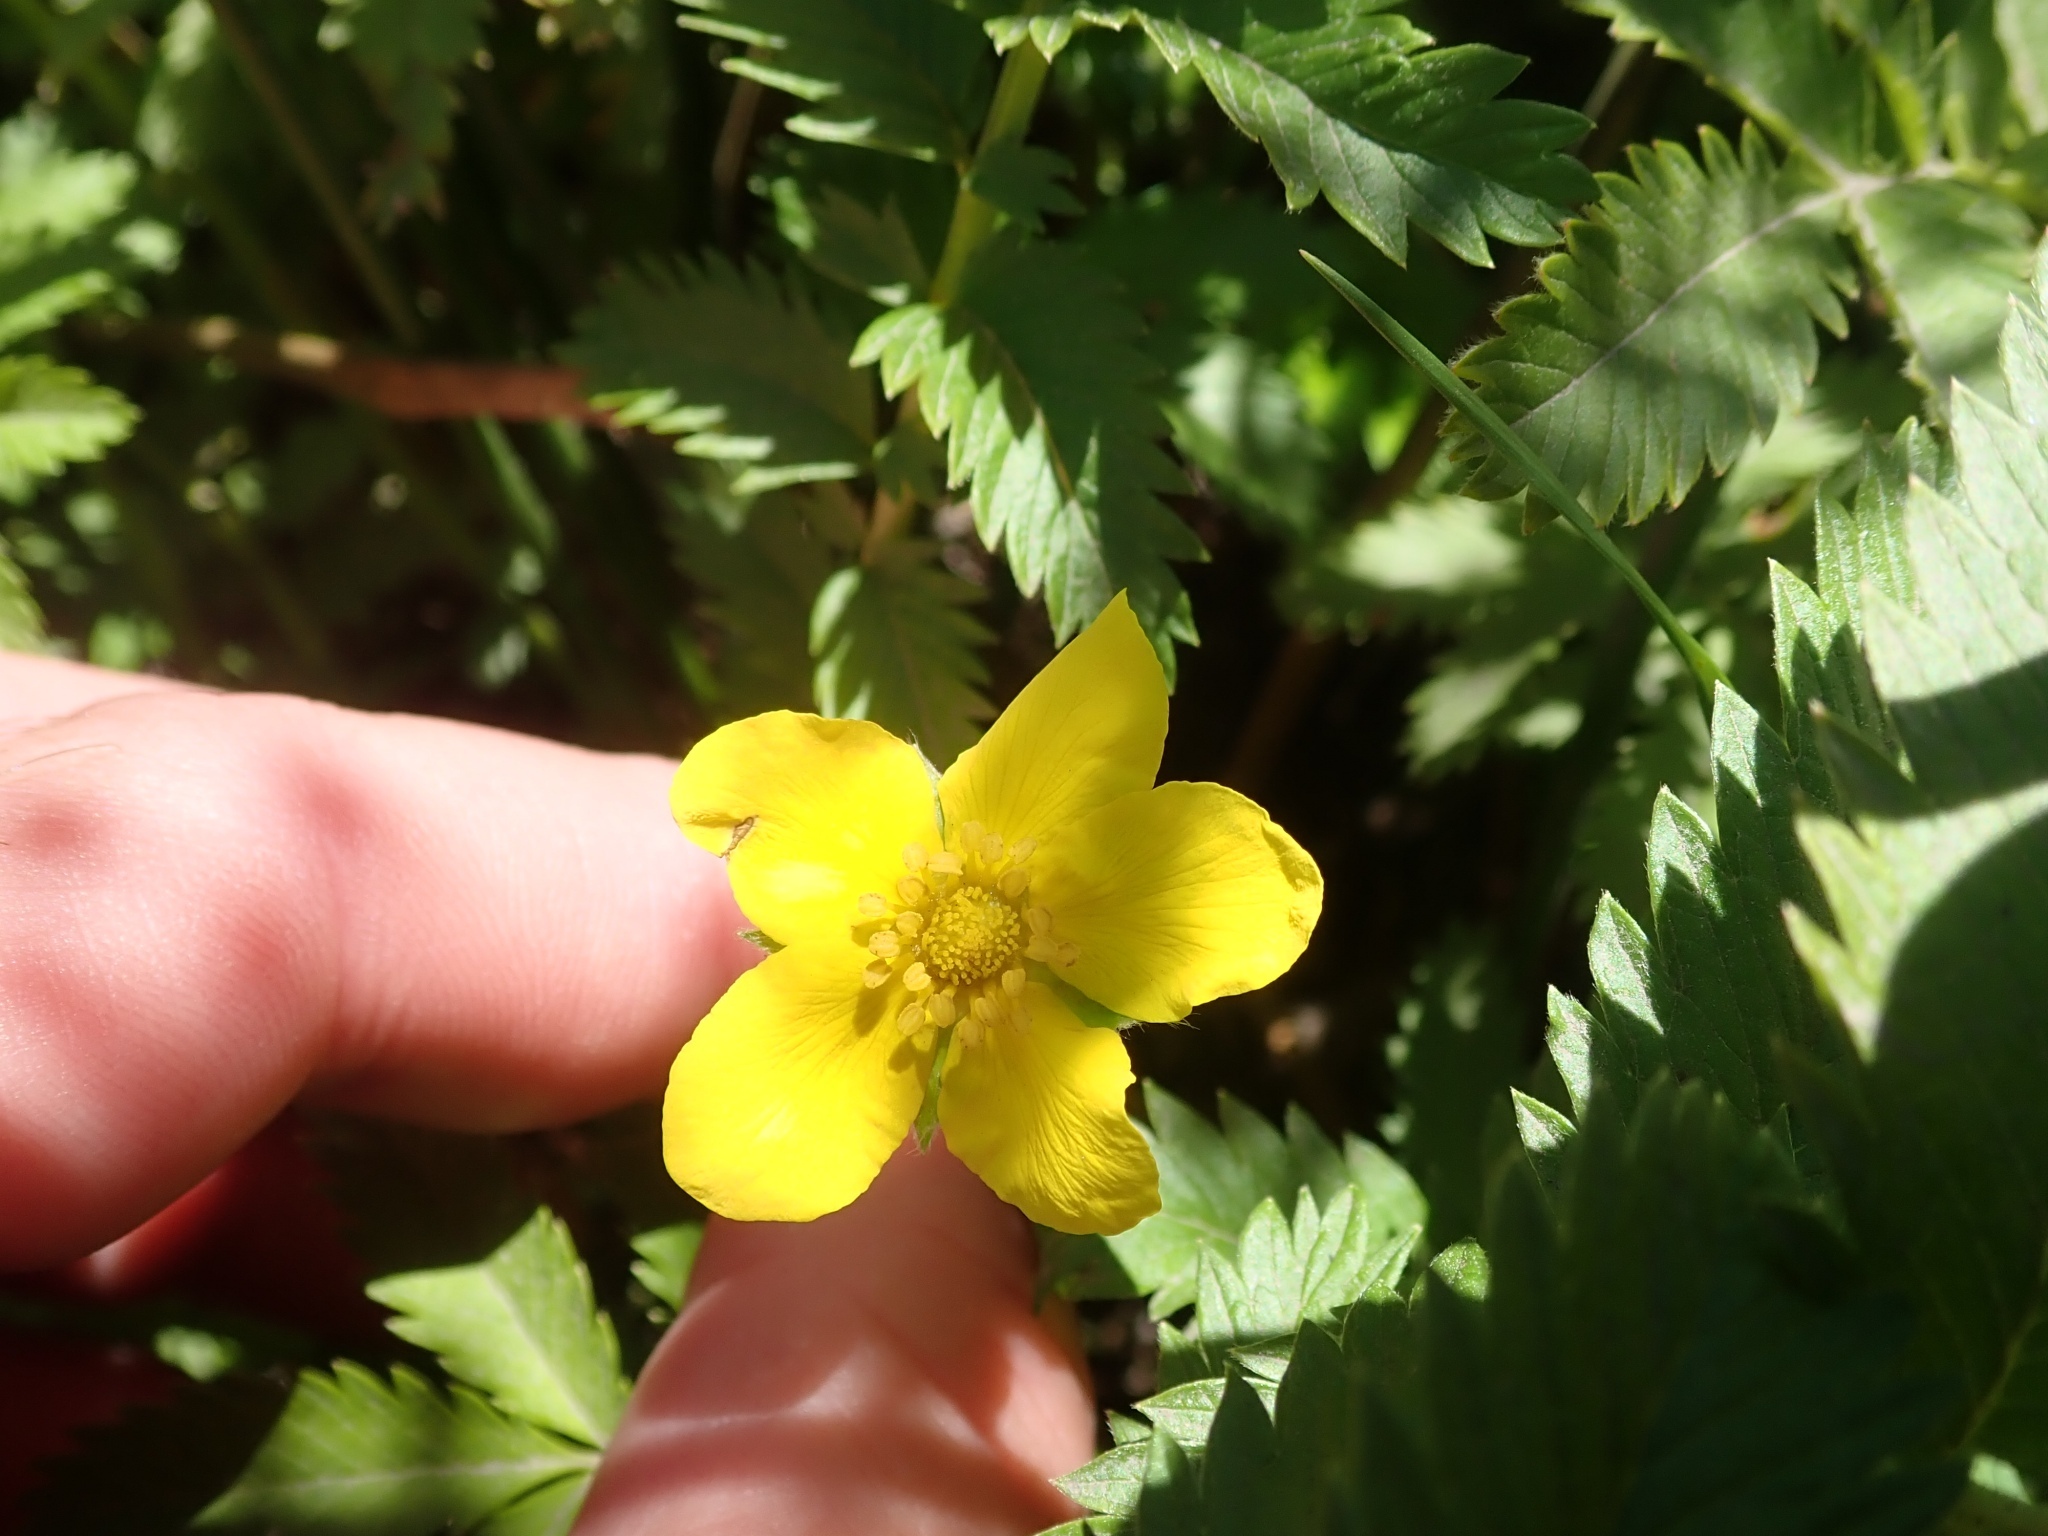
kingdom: Plantae
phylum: Tracheophyta
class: Magnoliopsida
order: Rosales
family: Rosaceae
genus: Argentina
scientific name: Argentina anserina
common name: Common silverweed
